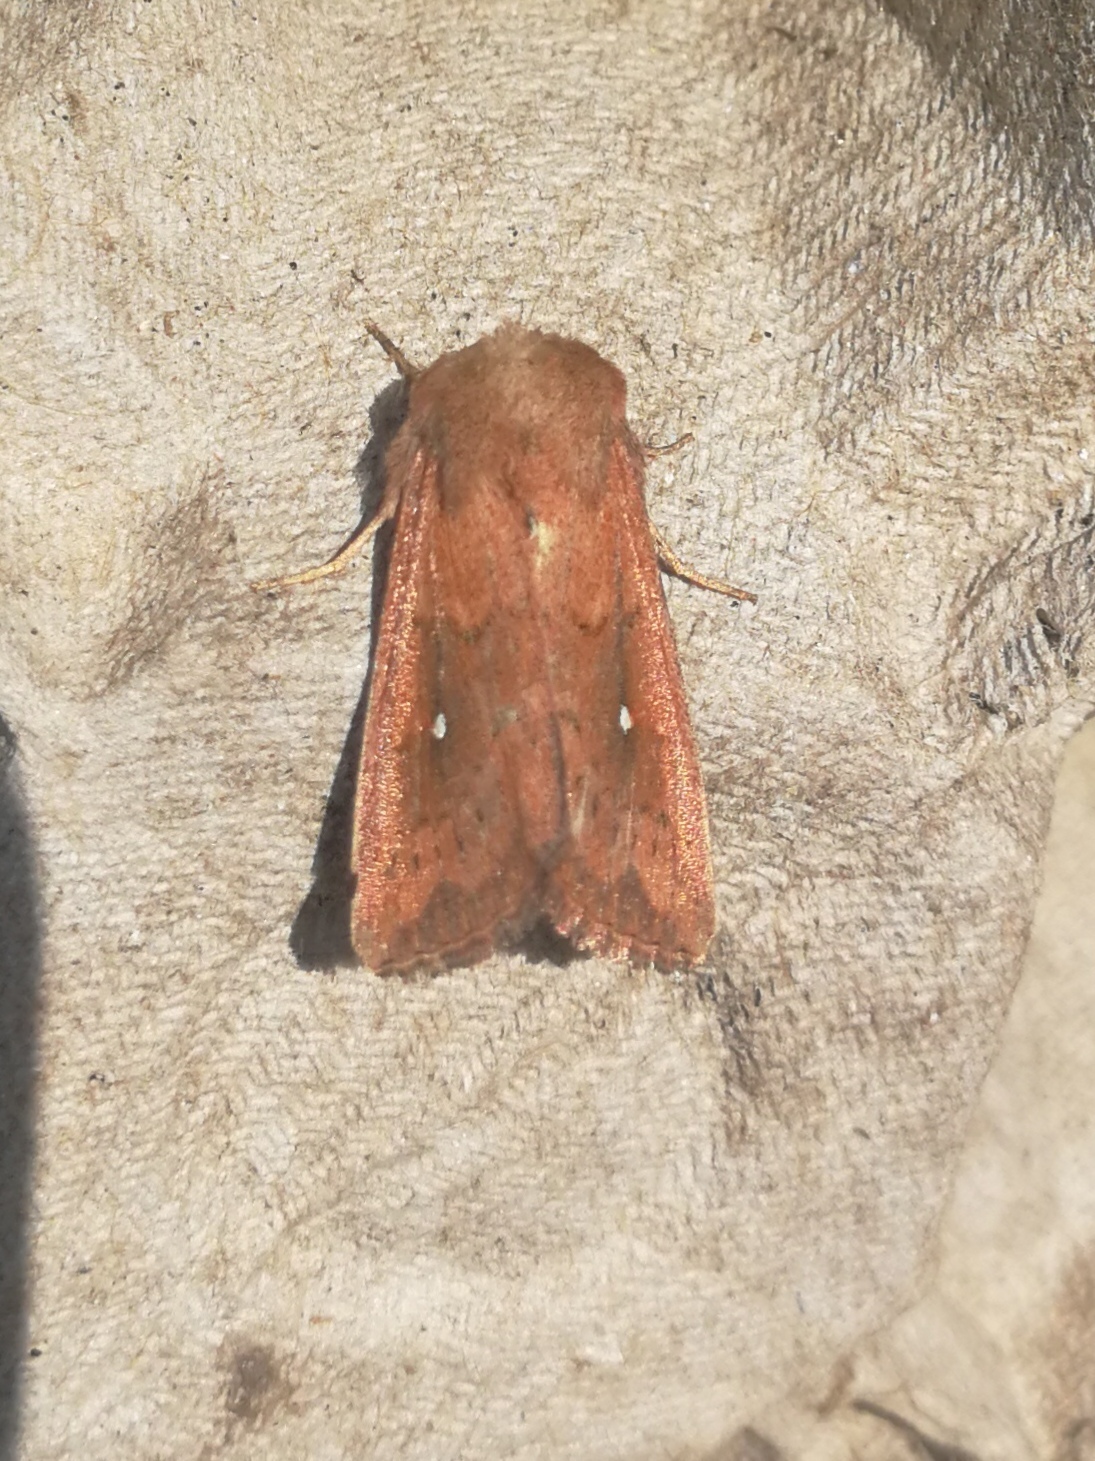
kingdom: Animalia
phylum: Arthropoda
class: Insecta
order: Lepidoptera
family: Noctuidae
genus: Mythimna
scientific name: Mythimna albipuncta
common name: White-point
